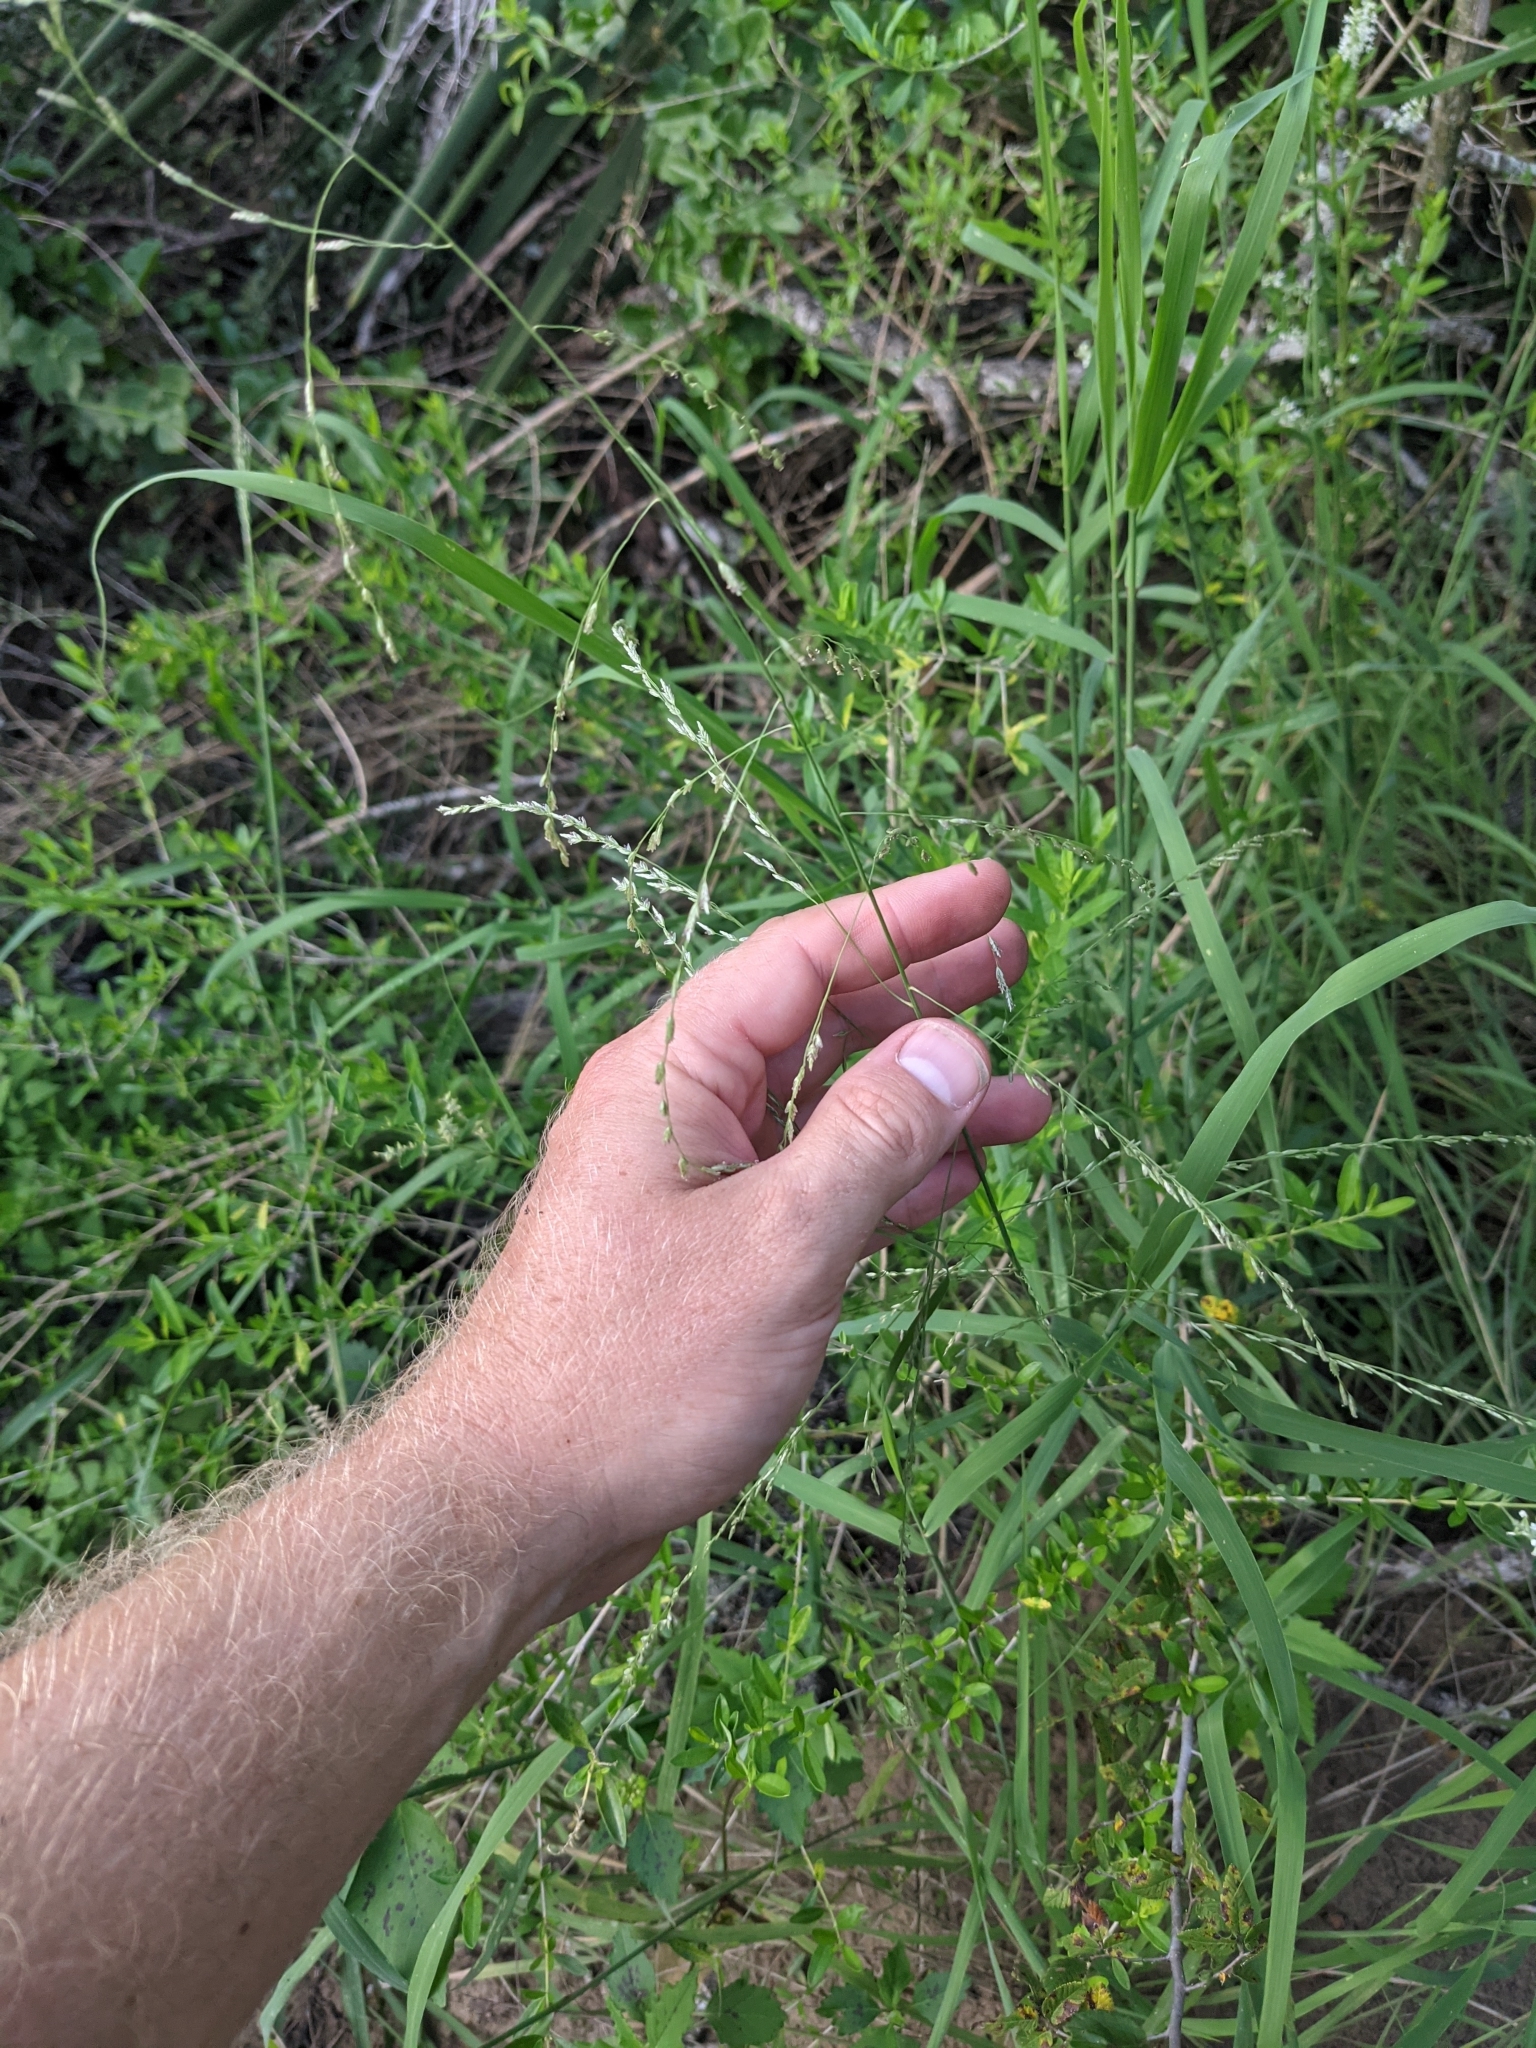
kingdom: Plantae
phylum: Tracheophyta
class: Liliopsida
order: Poales
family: Poaceae
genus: Triplasiella
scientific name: Triplasiella eragrostoides
